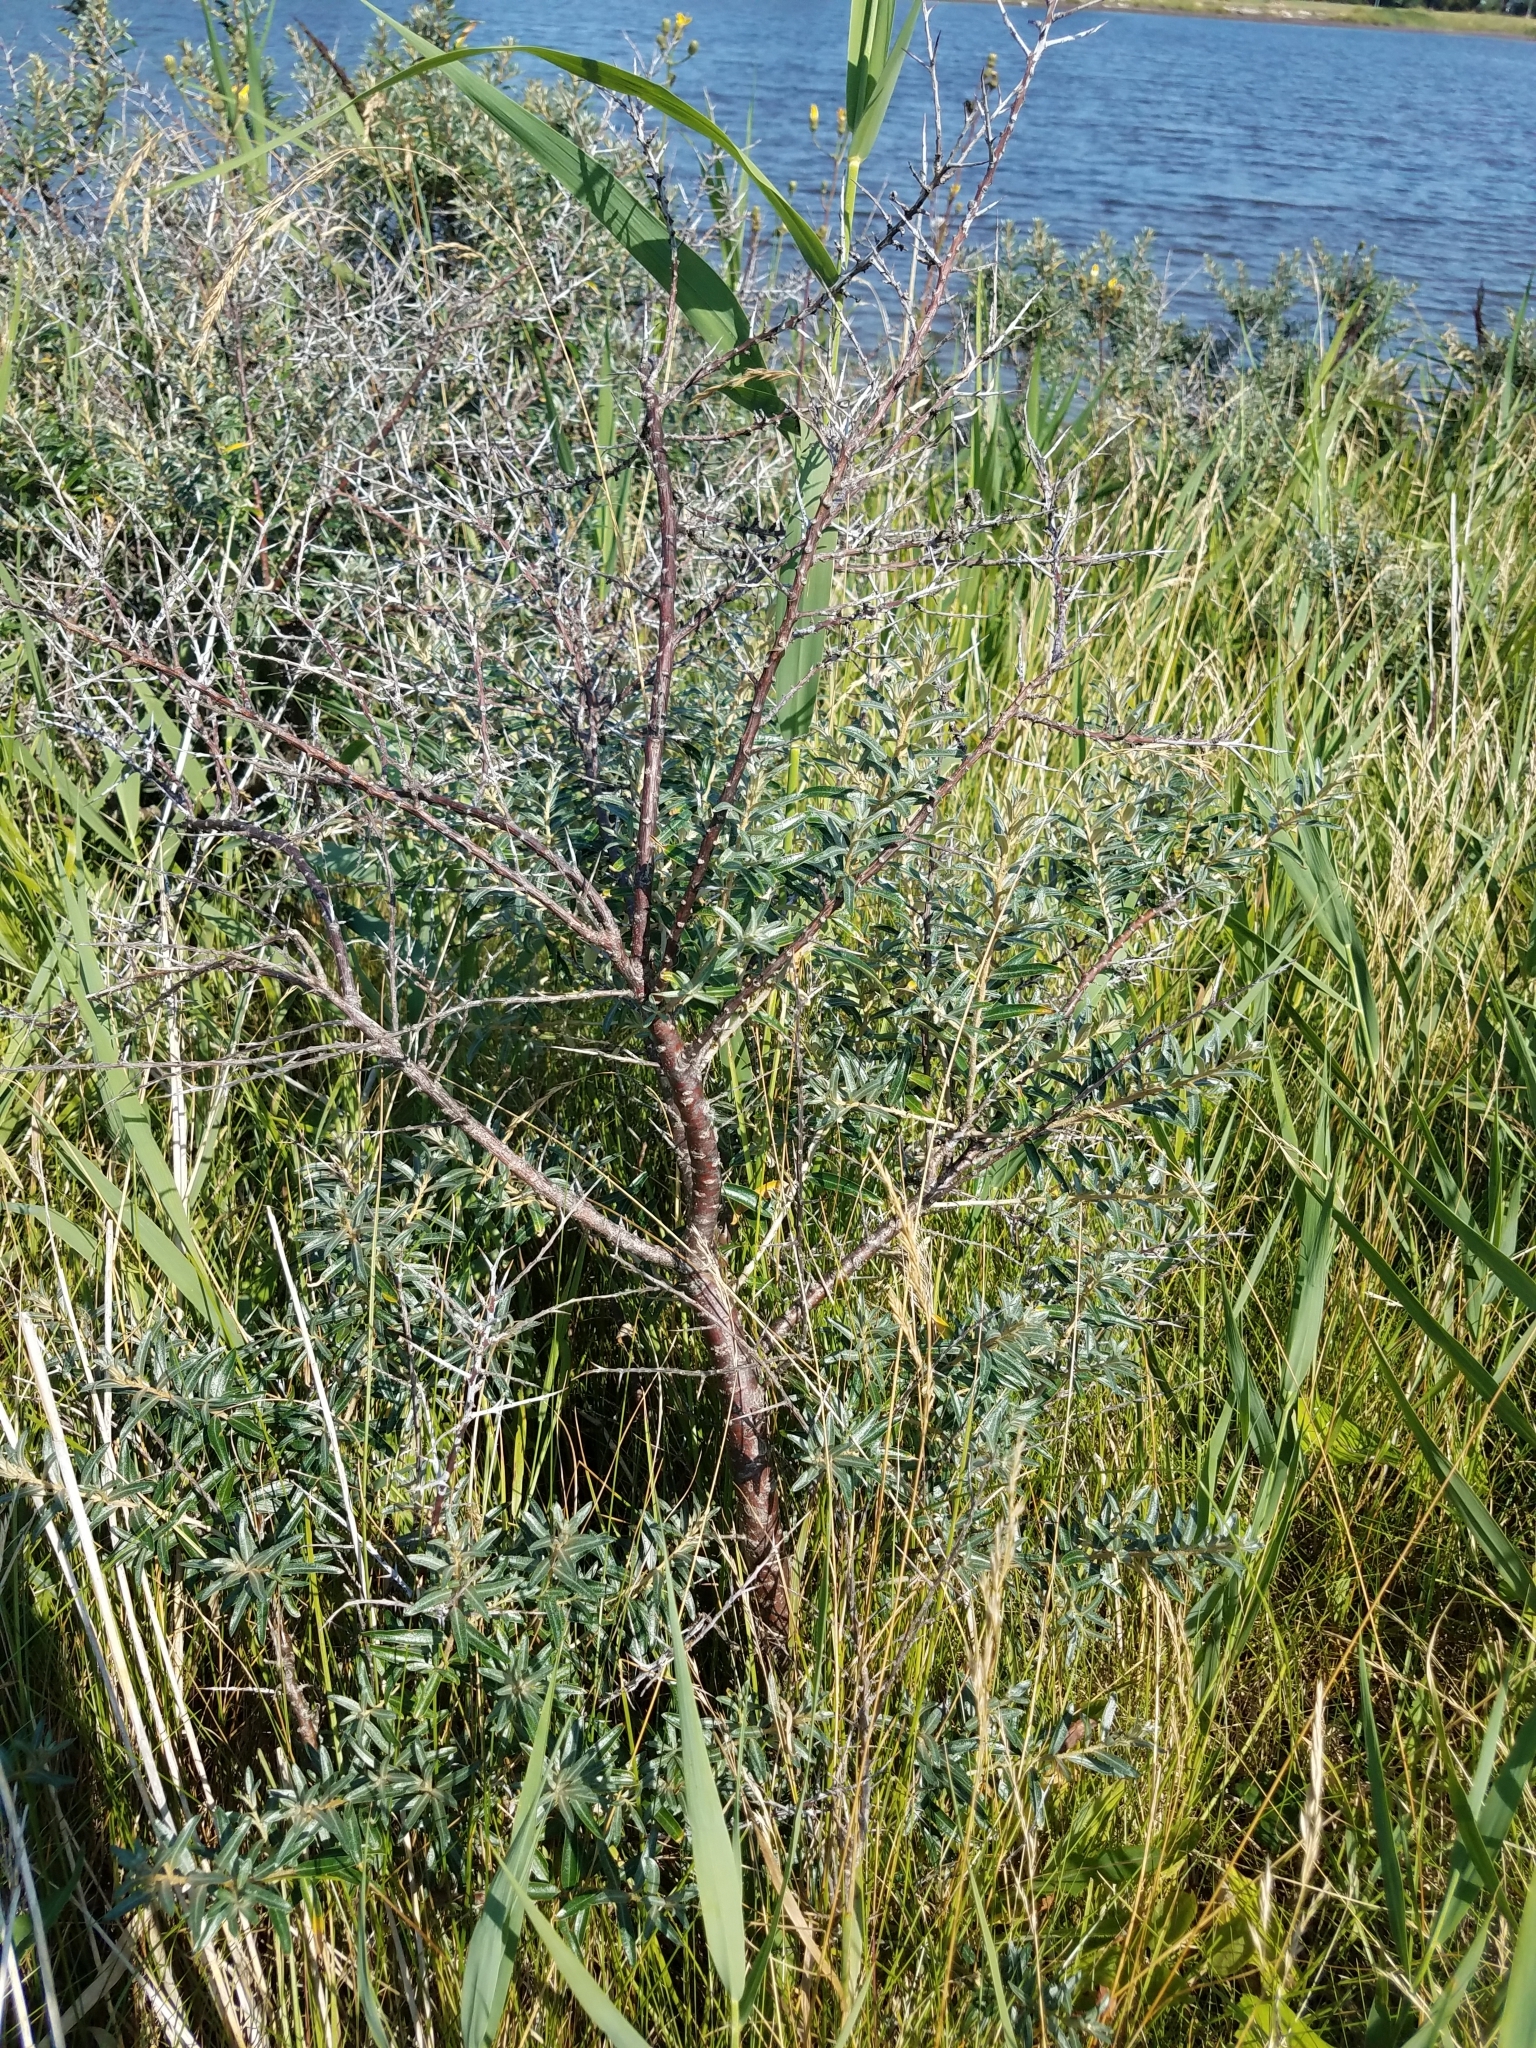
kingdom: Plantae
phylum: Tracheophyta
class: Magnoliopsida
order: Rosales
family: Elaeagnaceae
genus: Hippophae
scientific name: Hippophae rhamnoides
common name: Sea-buckthorn
